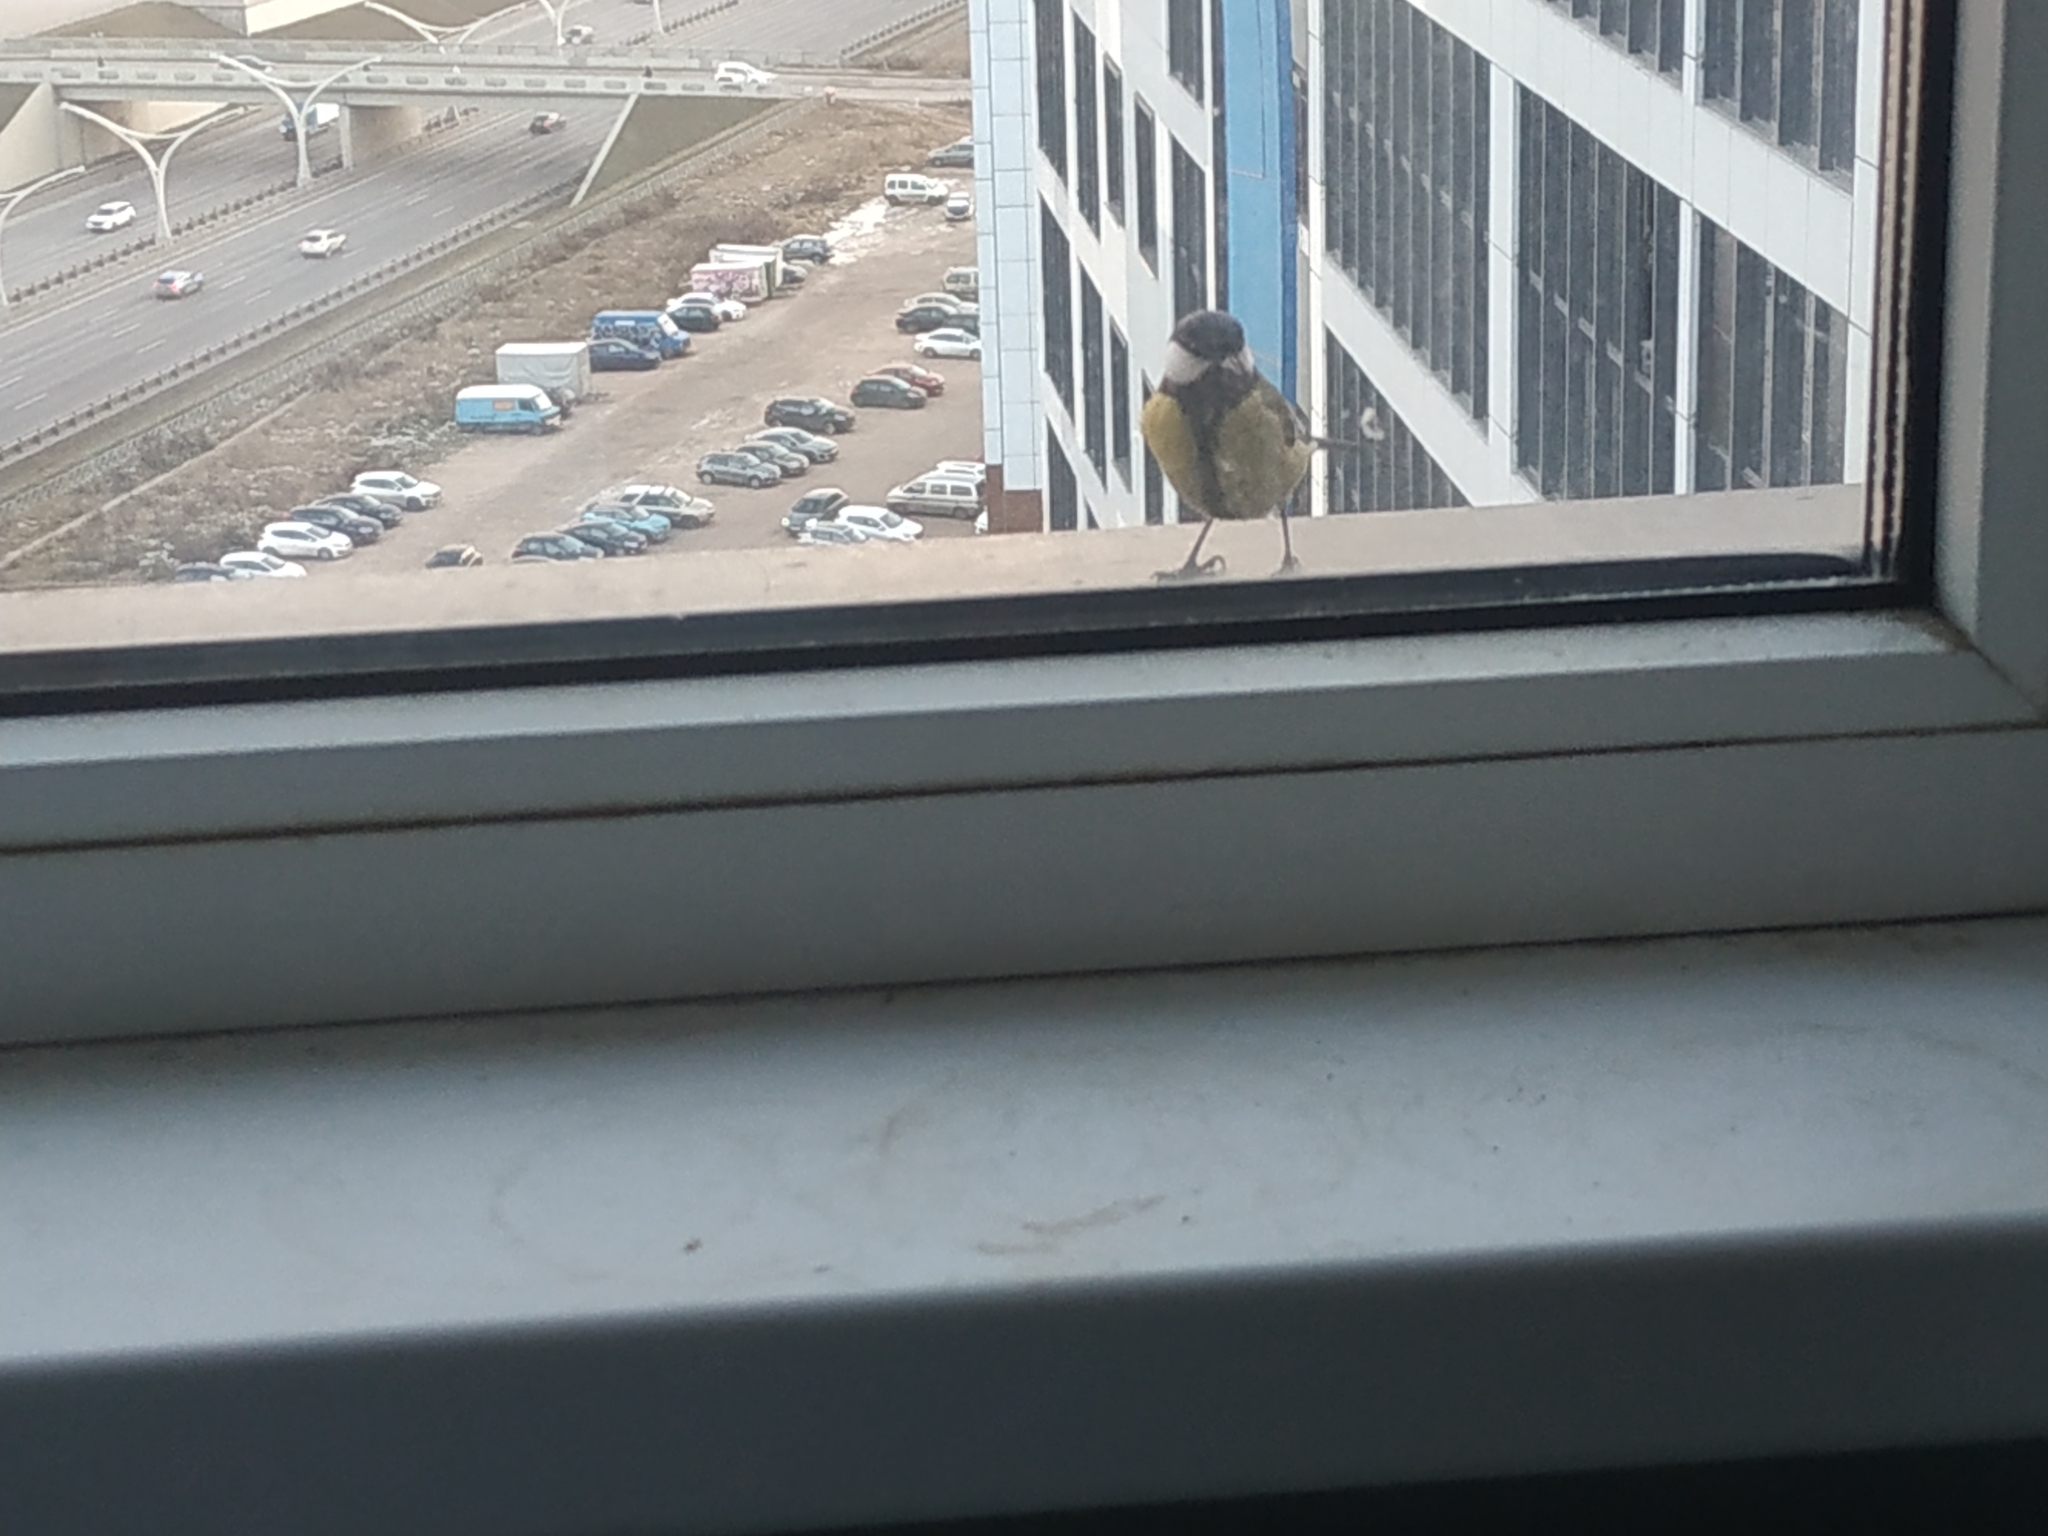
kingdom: Animalia
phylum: Chordata
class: Aves
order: Passeriformes
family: Paridae
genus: Parus
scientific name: Parus major
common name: Great tit
